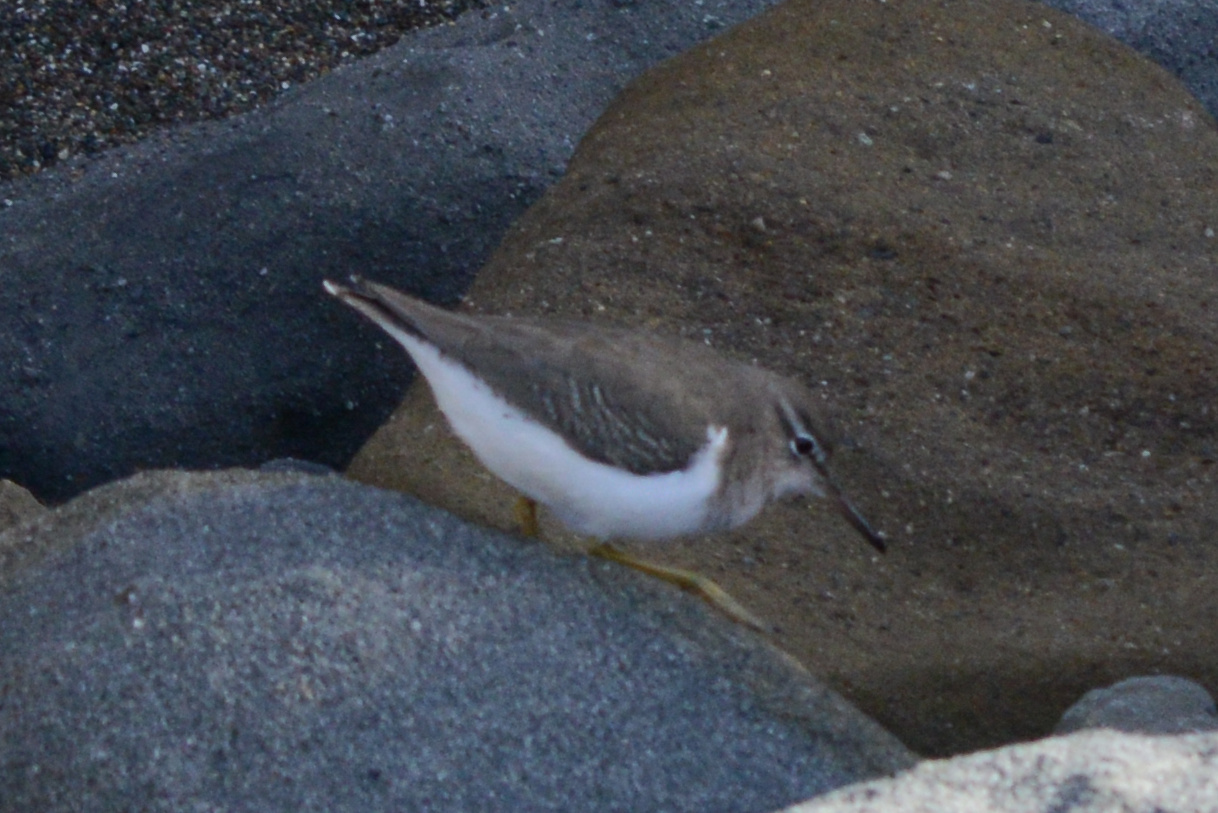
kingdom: Animalia
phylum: Chordata
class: Aves
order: Charadriiformes
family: Scolopacidae
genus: Actitis
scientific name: Actitis macularius
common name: Spotted sandpiper
